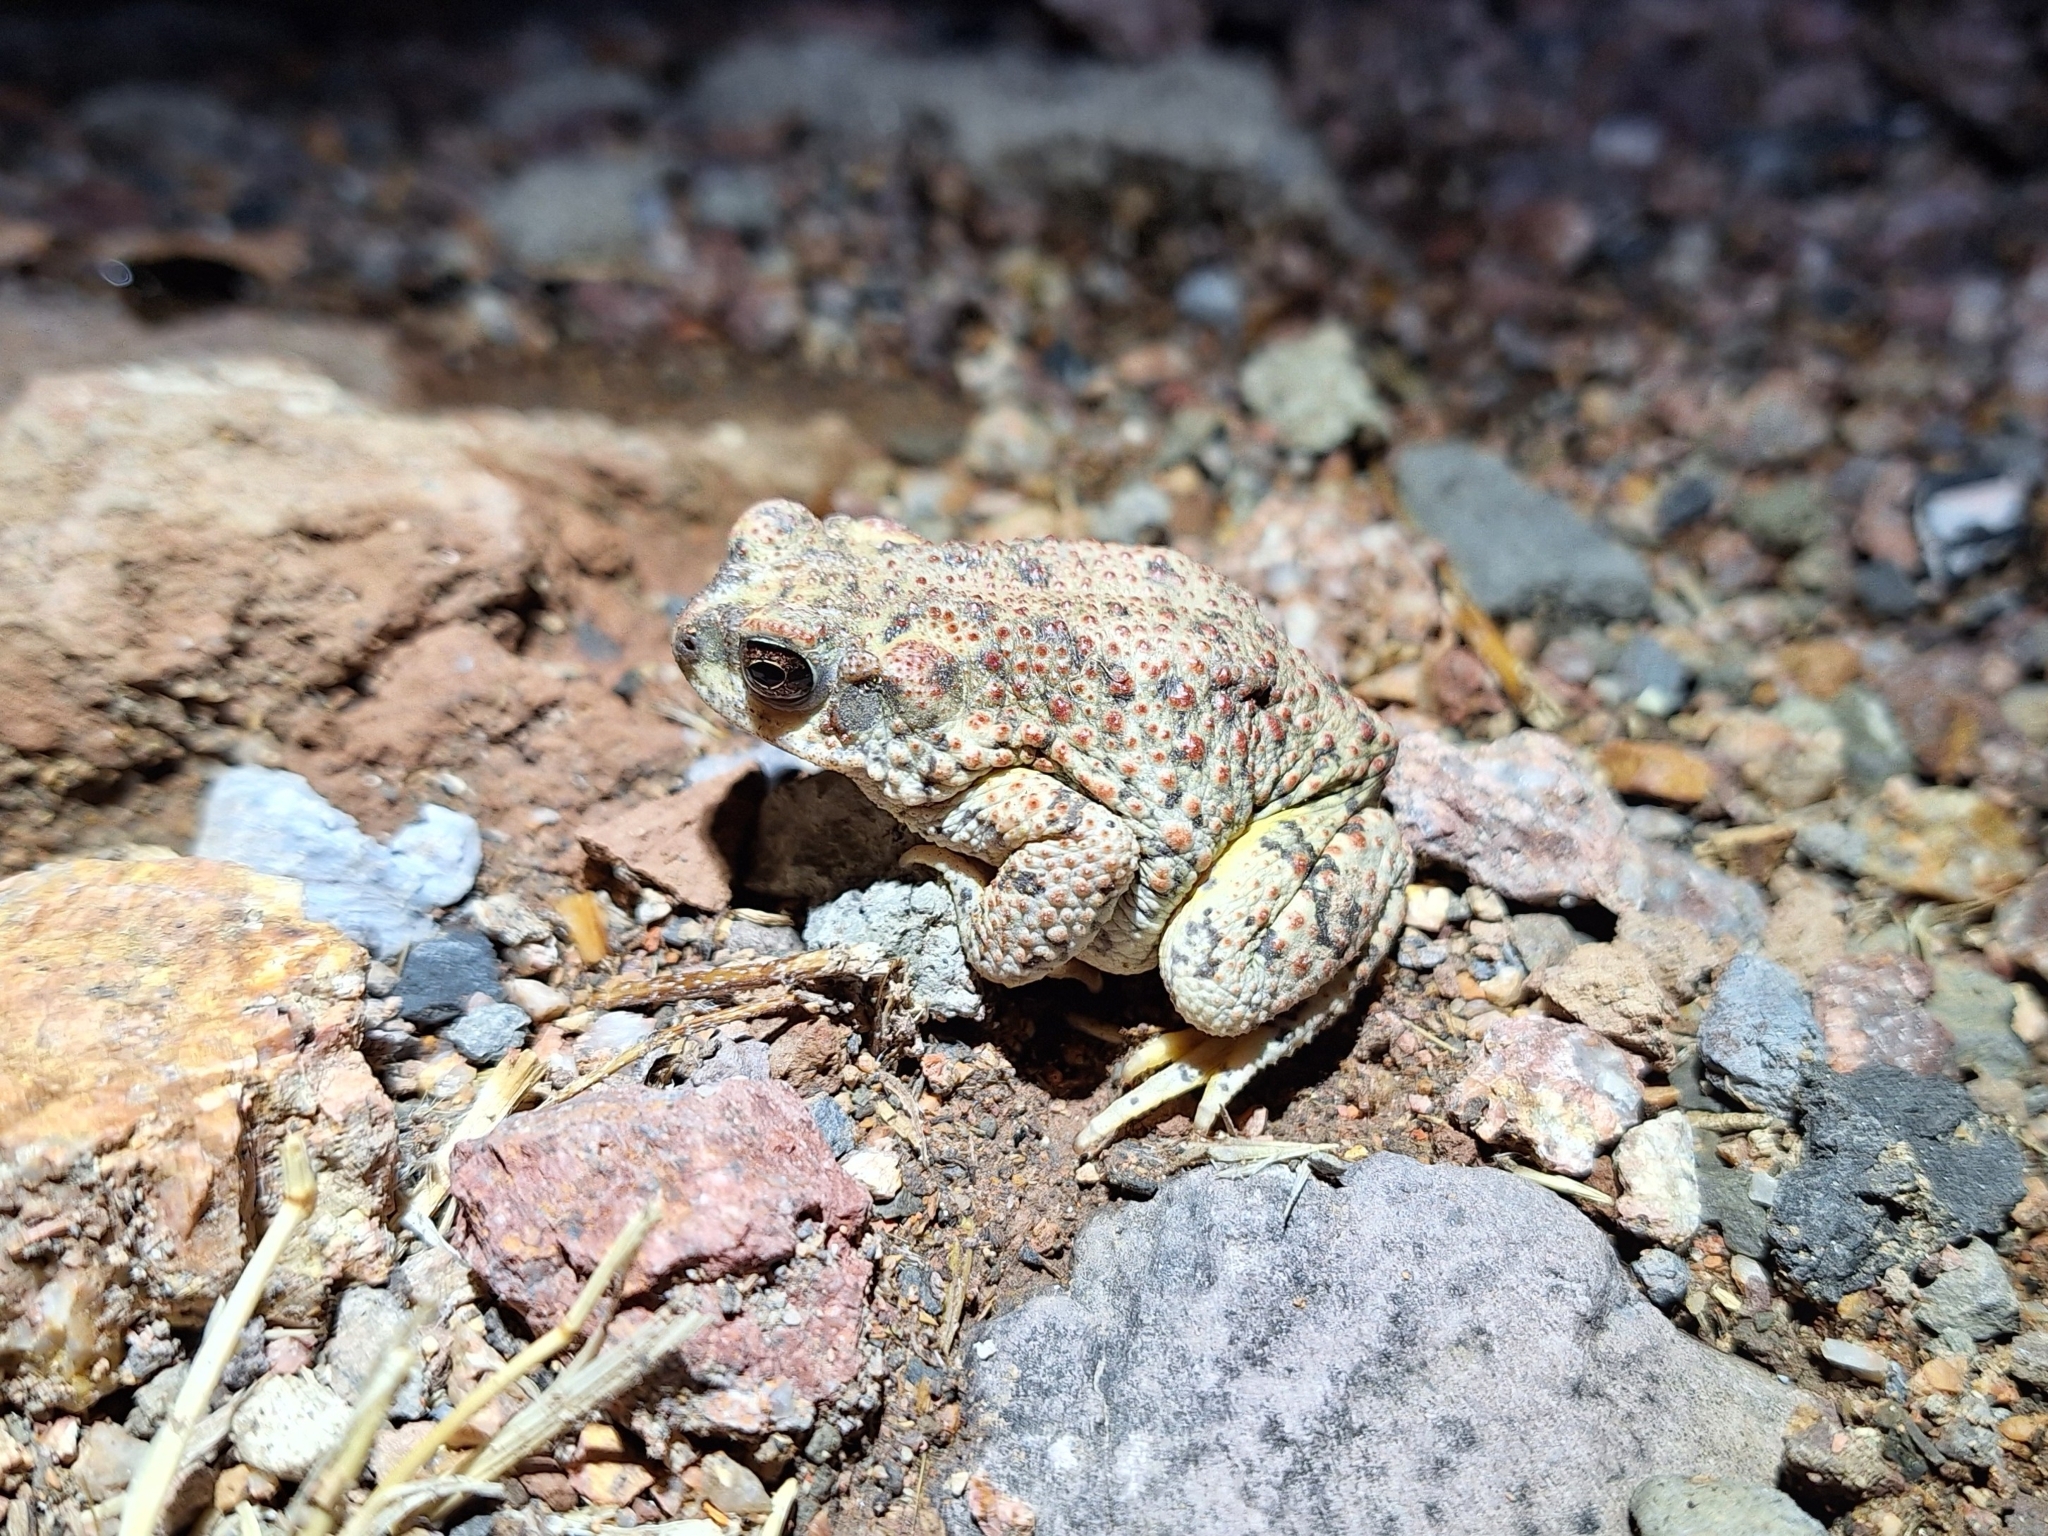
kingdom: Animalia
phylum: Chordata
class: Amphibia
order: Anura
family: Bufonidae
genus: Anaxyrus
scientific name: Anaxyrus punctatus
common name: Red-spotted toad
